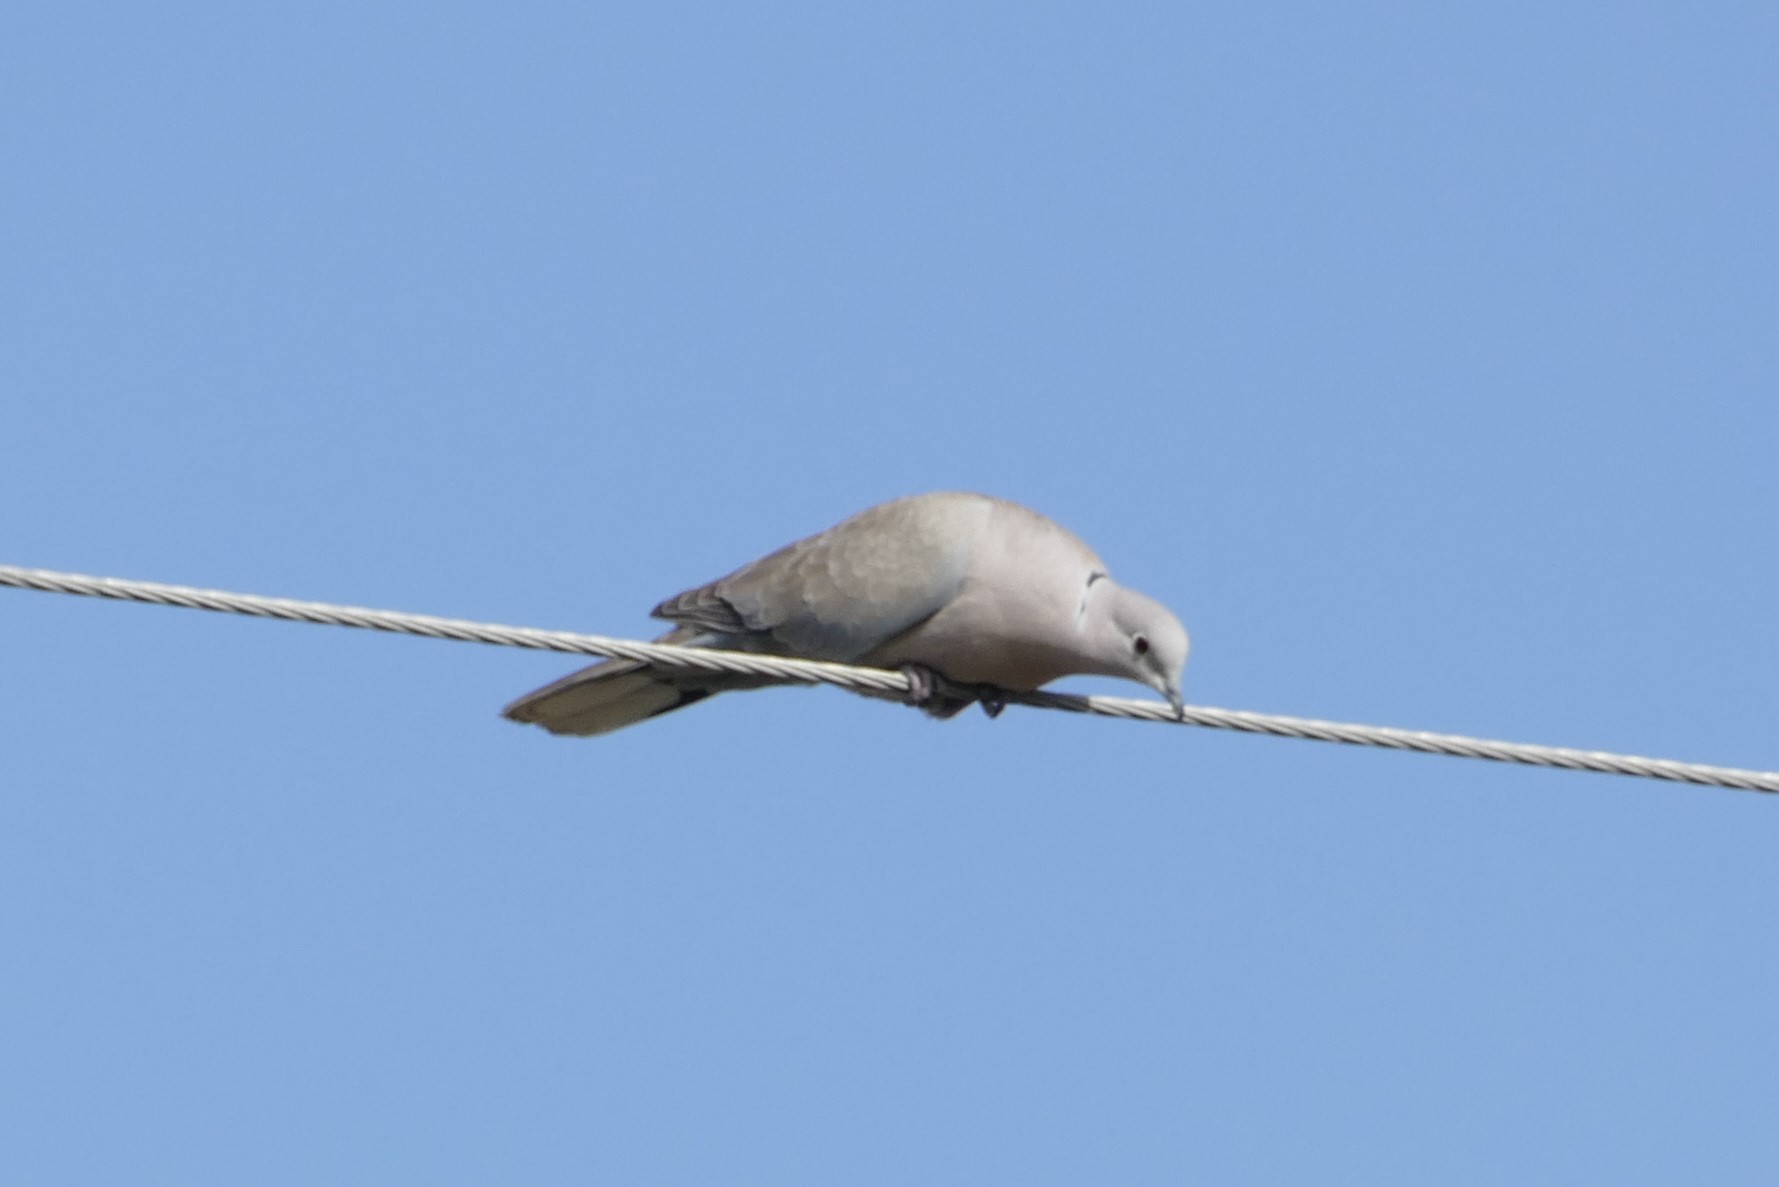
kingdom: Animalia
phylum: Chordata
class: Aves
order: Columbiformes
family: Columbidae
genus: Streptopelia
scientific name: Streptopelia decaocto
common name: Eurasian collared dove
